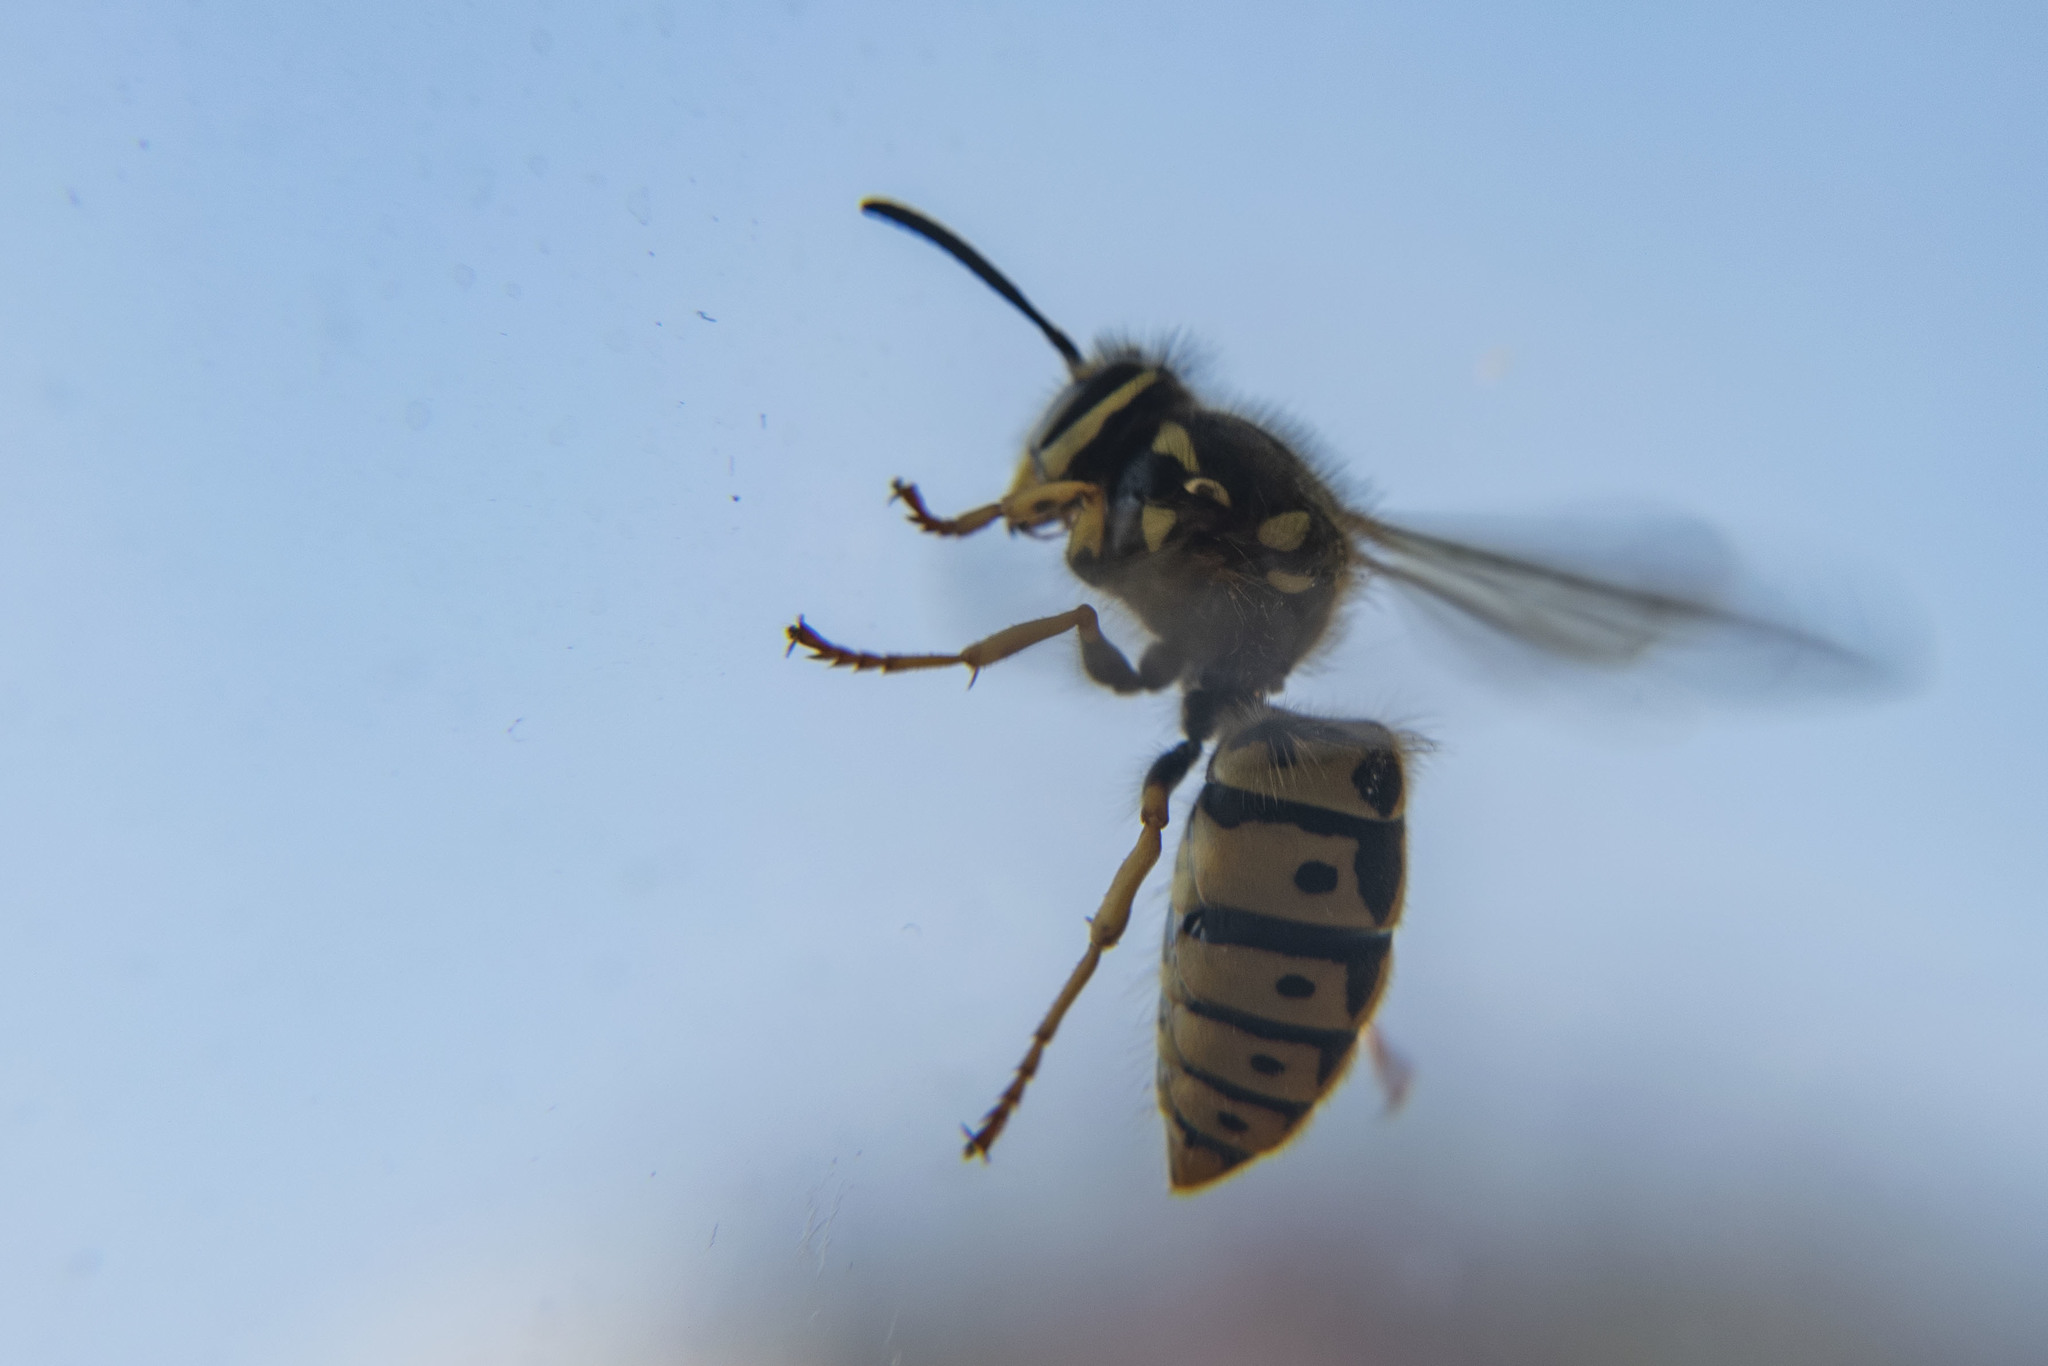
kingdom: Animalia
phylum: Arthropoda
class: Insecta
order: Hymenoptera
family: Vespidae
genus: Vespula
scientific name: Vespula germanica
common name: German wasp
